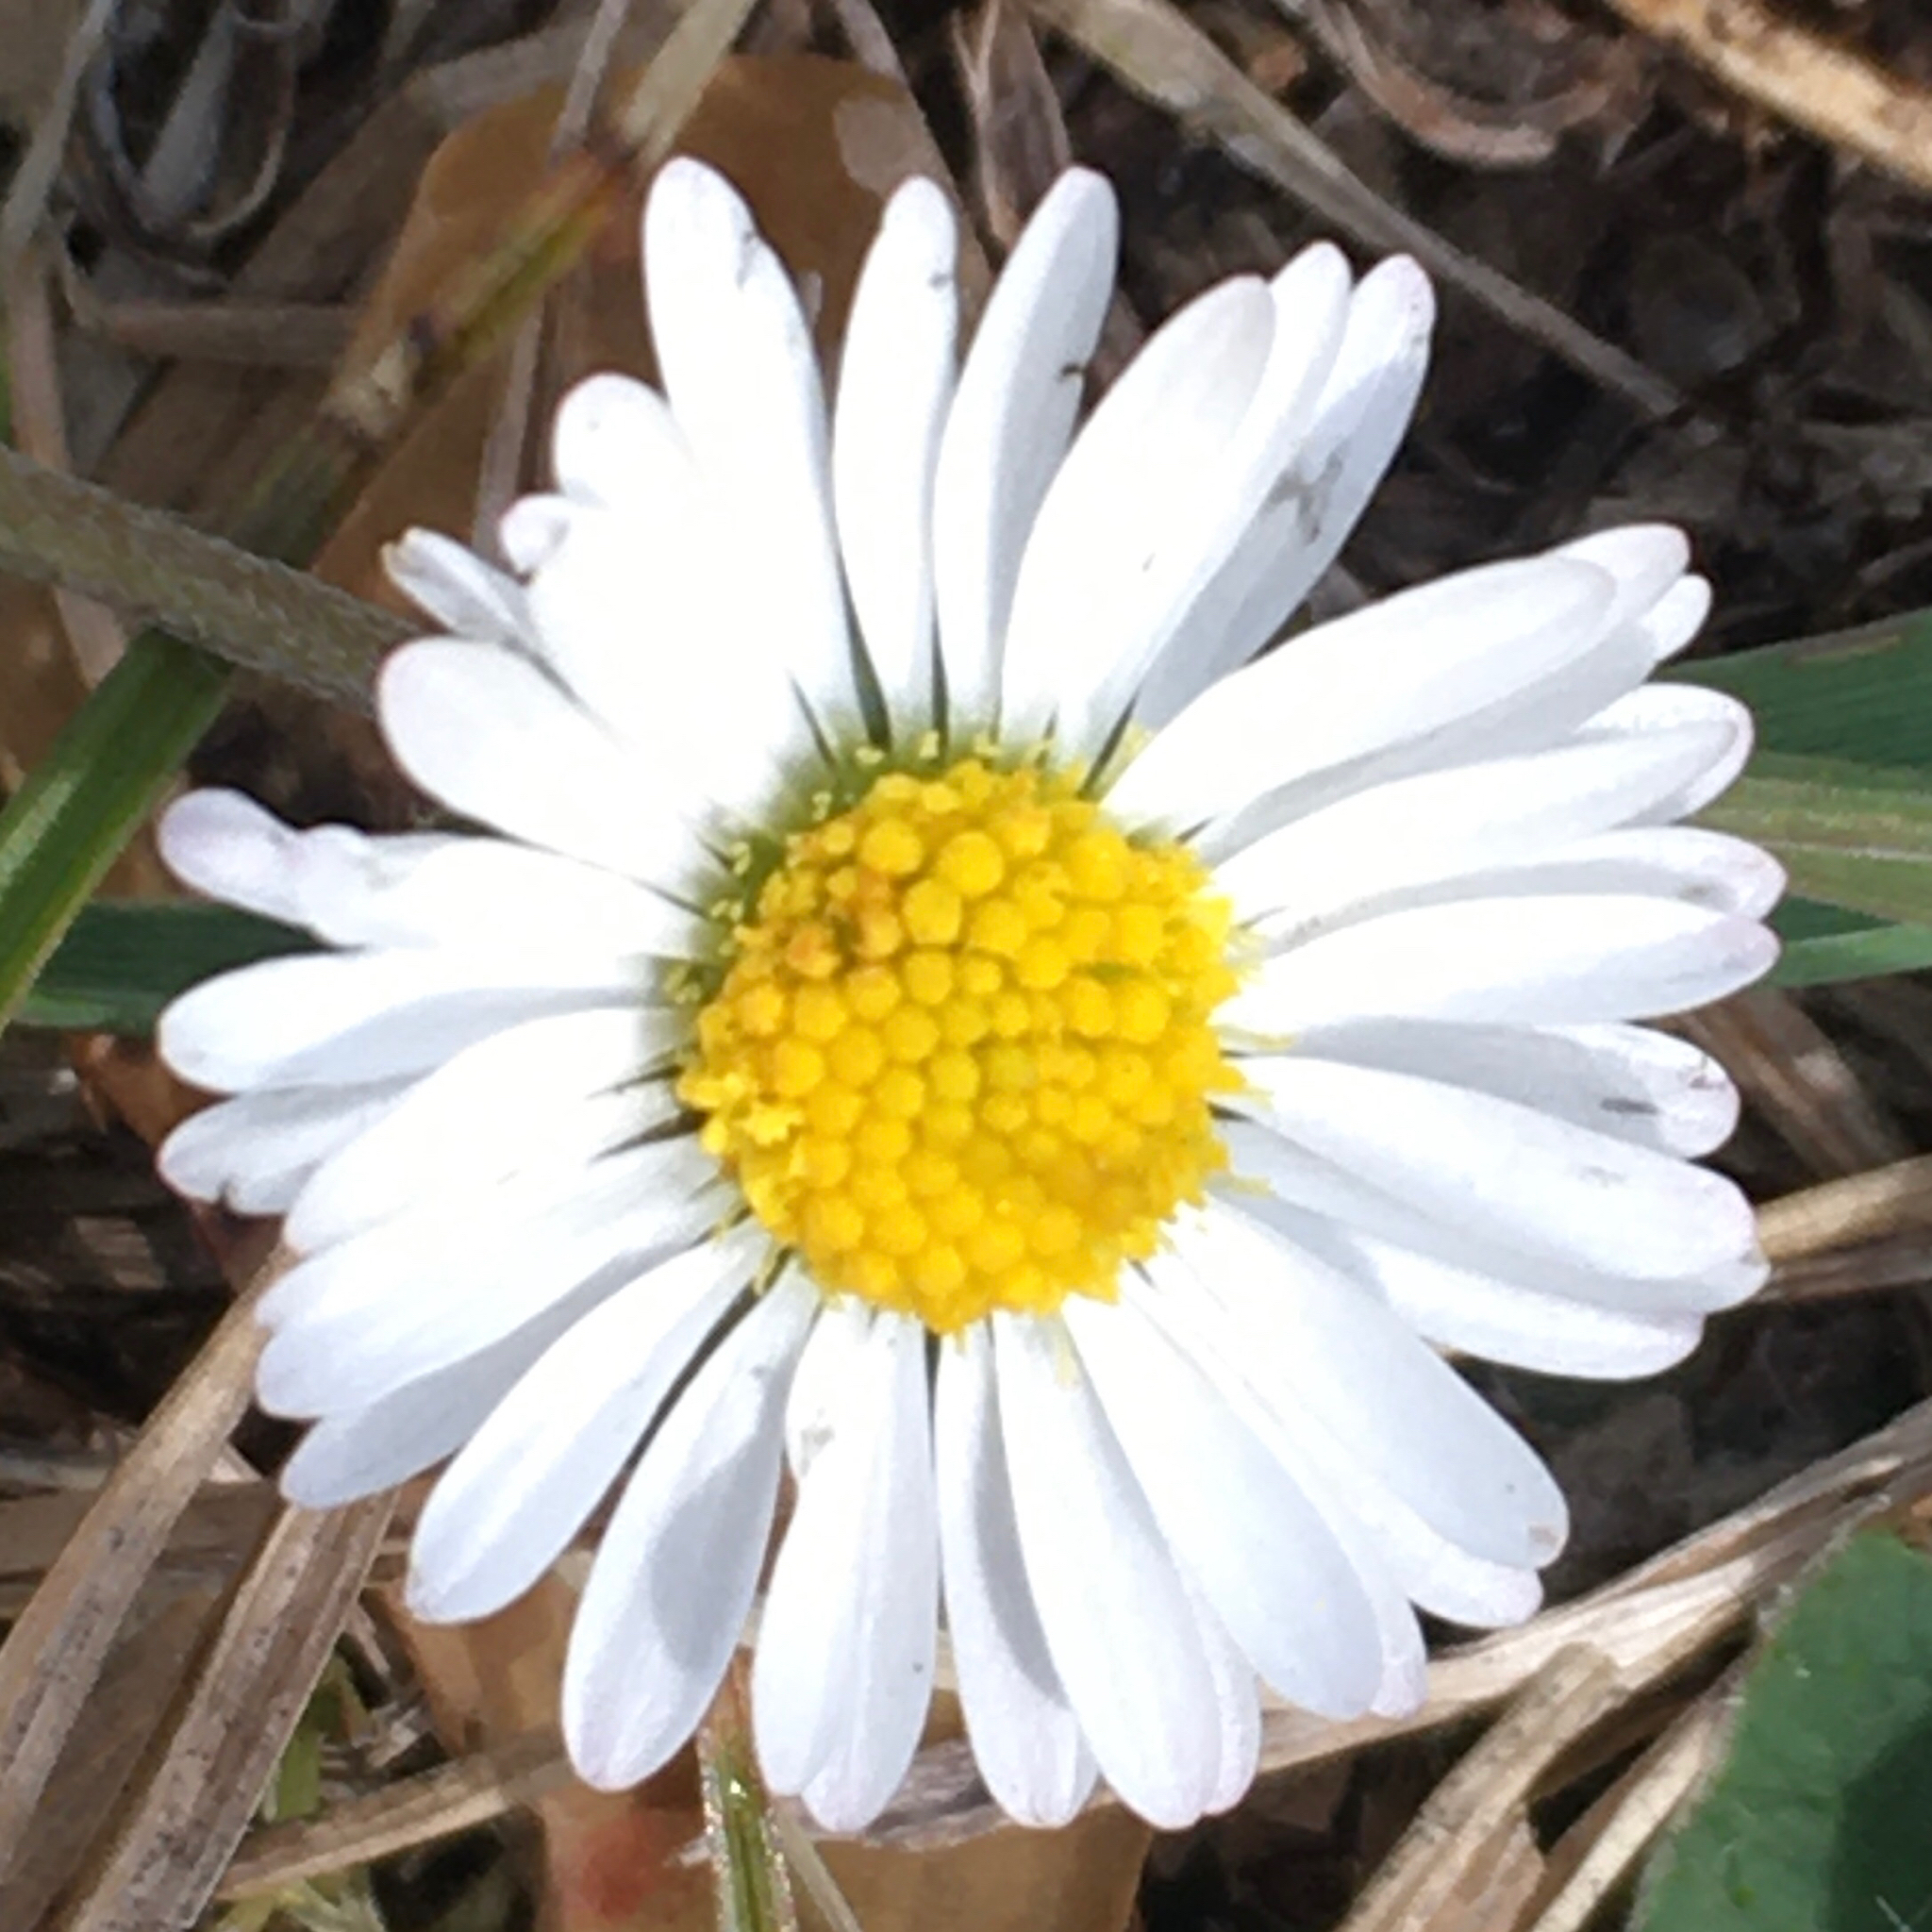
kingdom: Plantae
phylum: Tracheophyta
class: Magnoliopsida
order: Asterales
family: Asteraceae
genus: Bellis
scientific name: Bellis perennis
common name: Lawndaisy
